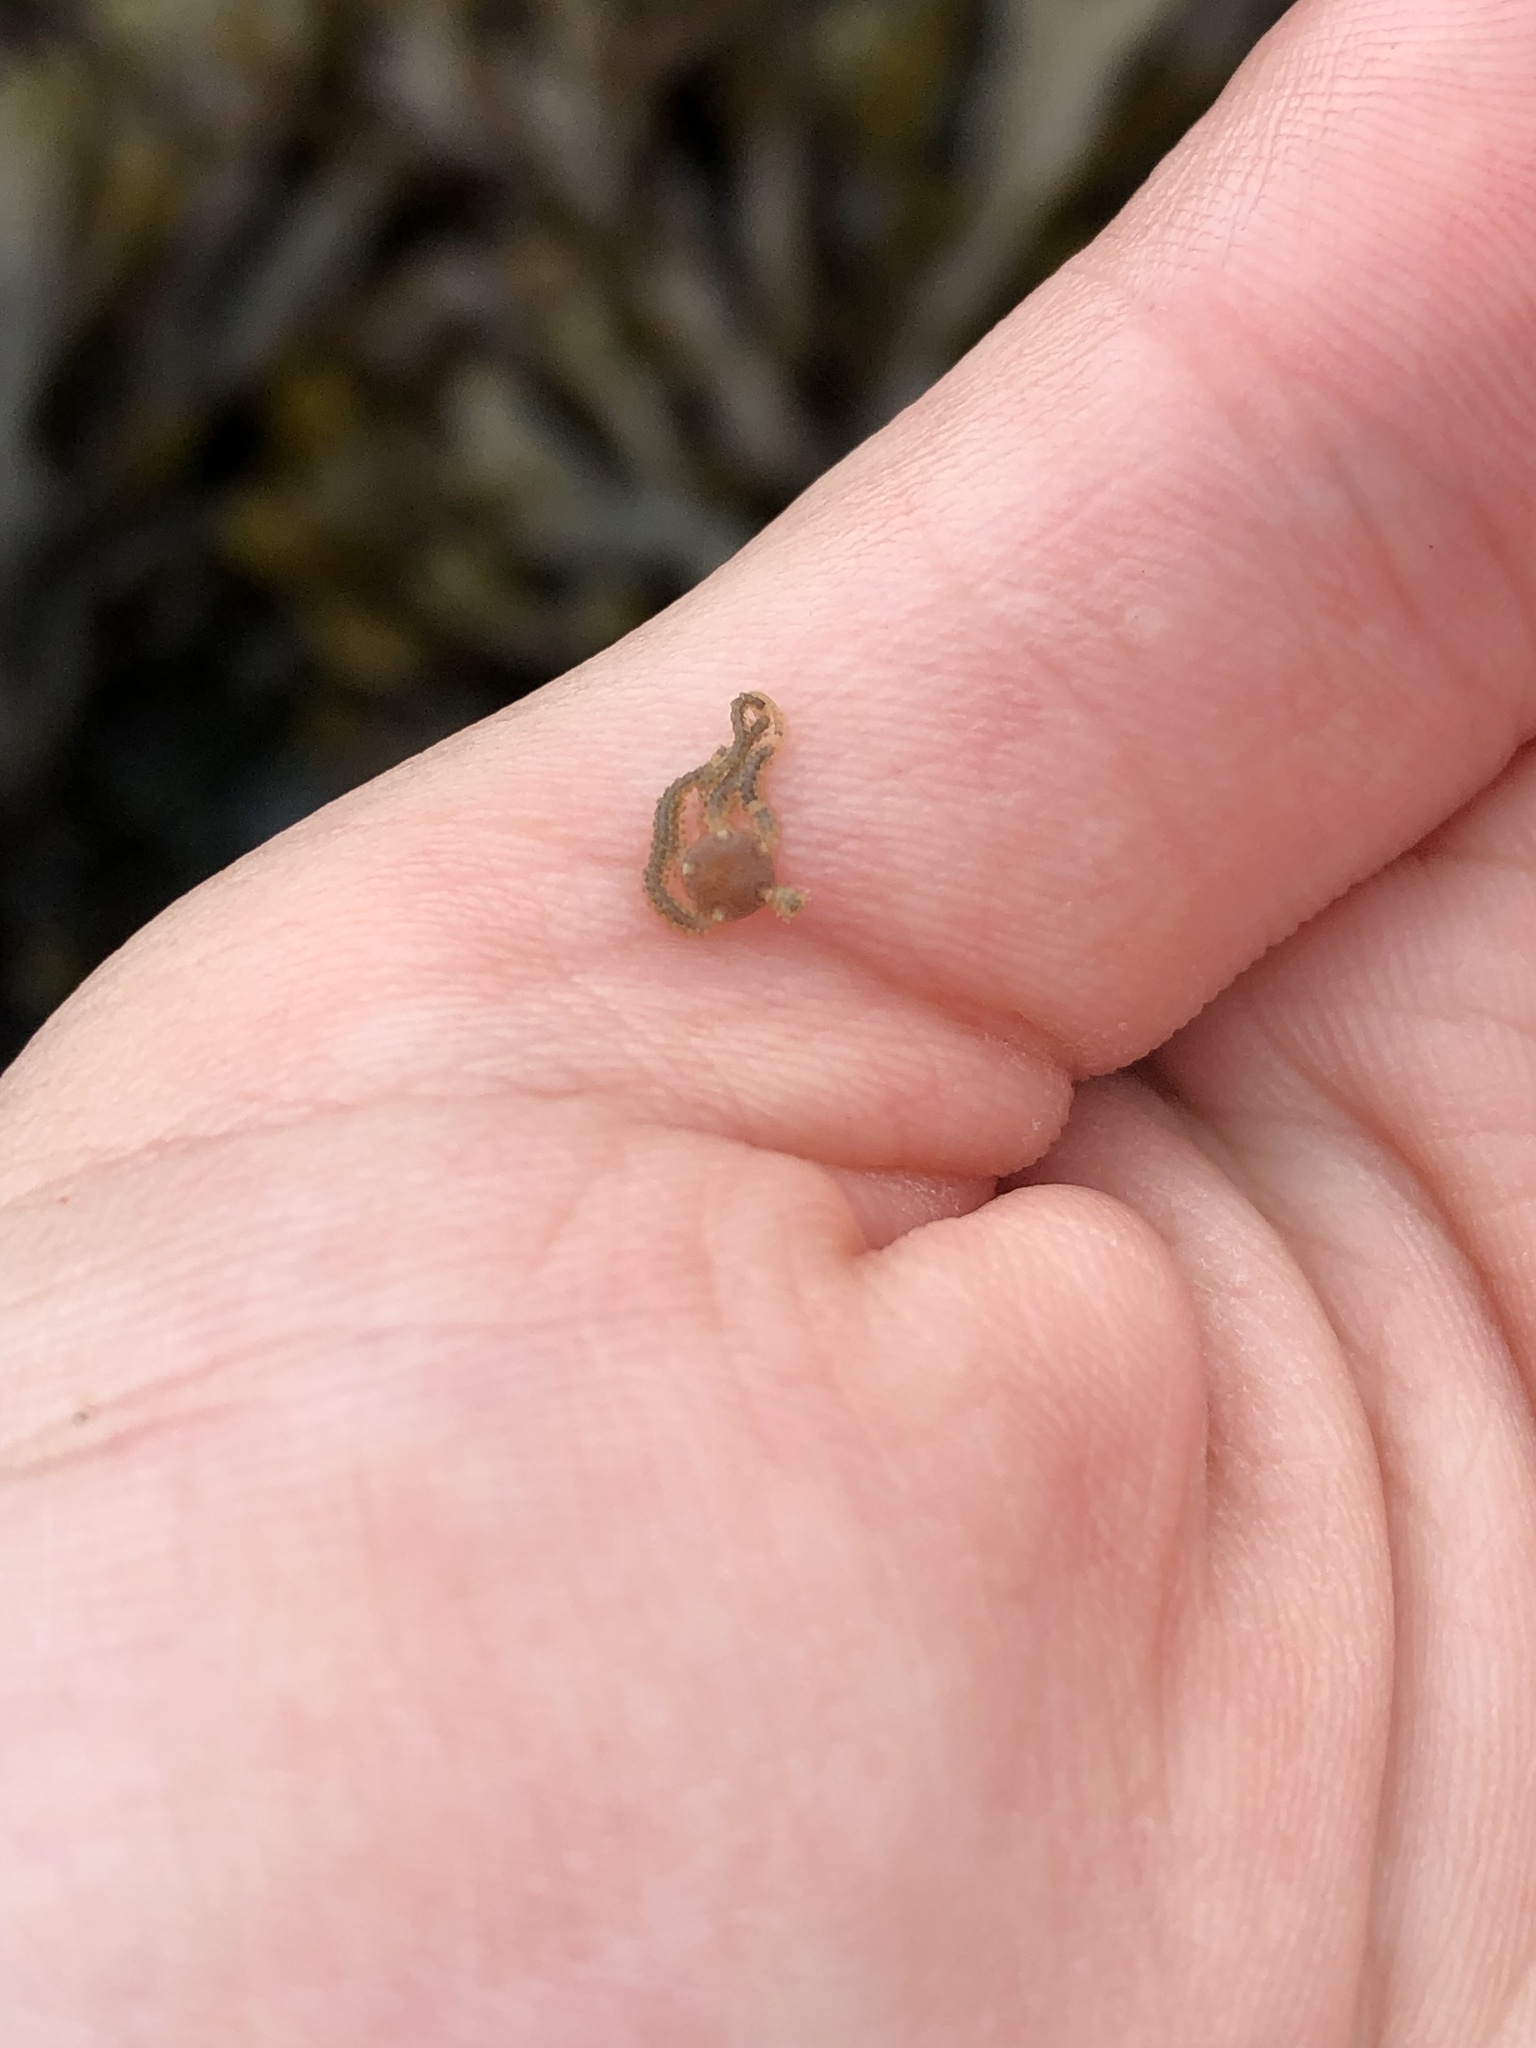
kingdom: Animalia
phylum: Echinodermata
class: Ophiuroidea
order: Amphilepidida
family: Amphiuridae
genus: Amphipholis
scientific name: Amphipholis squamata
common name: Brooding snake star
